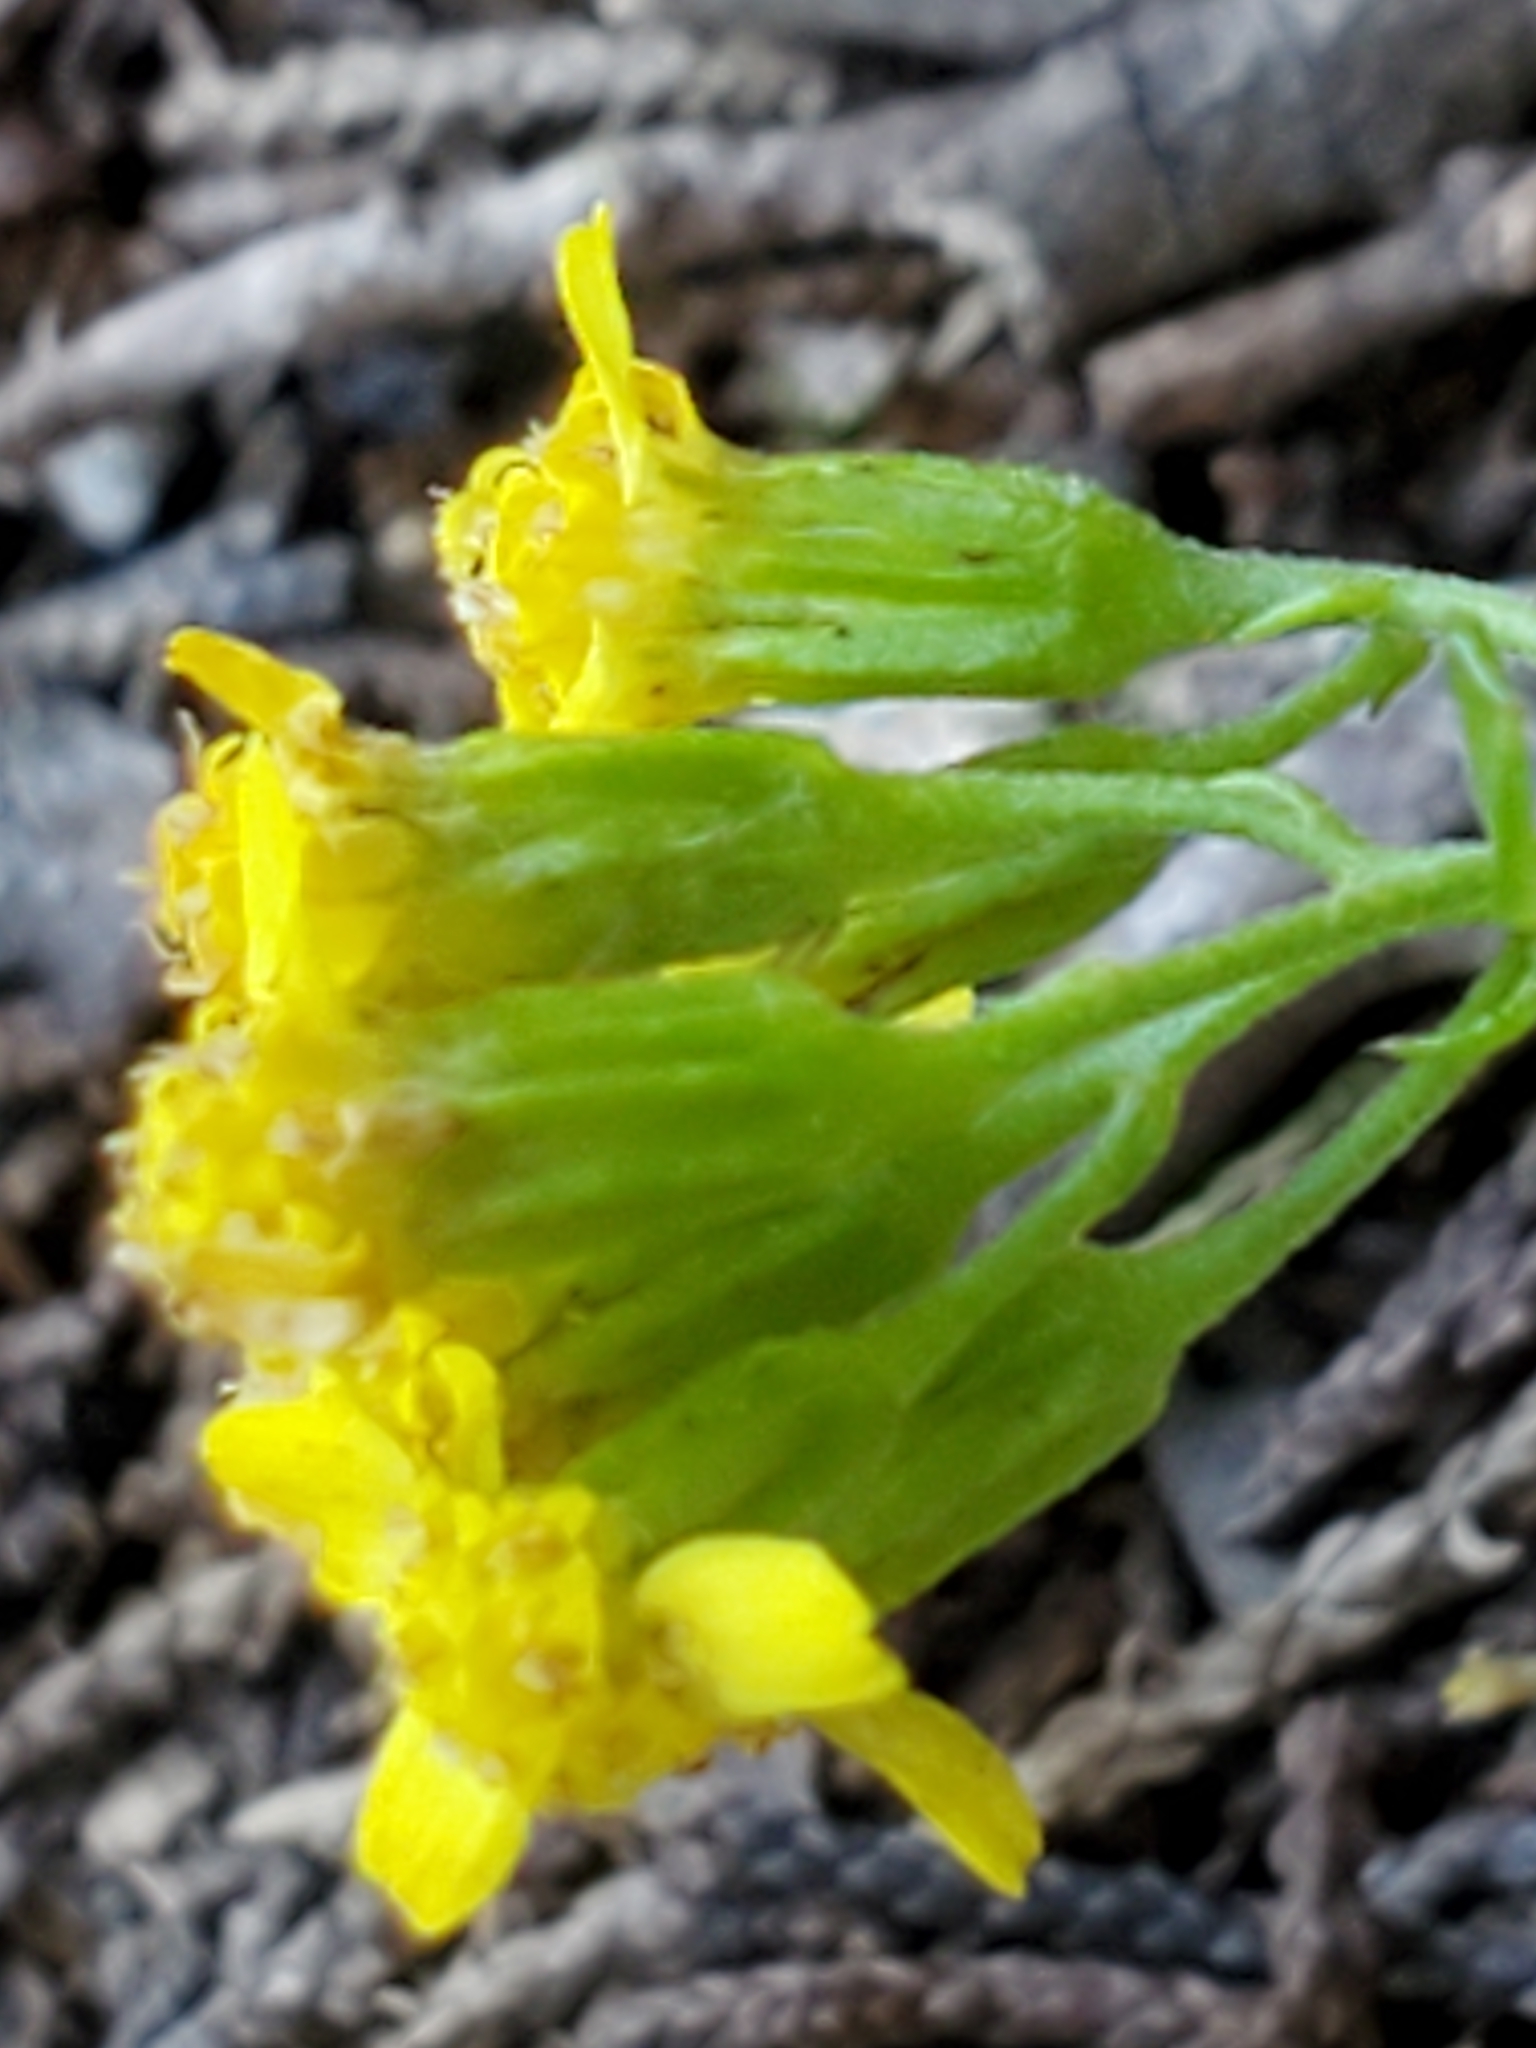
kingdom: Plantae
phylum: Tracheophyta
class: Magnoliopsida
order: Asterales
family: Asteraceae
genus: Laphamia
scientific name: Laphamia lindheimeri
